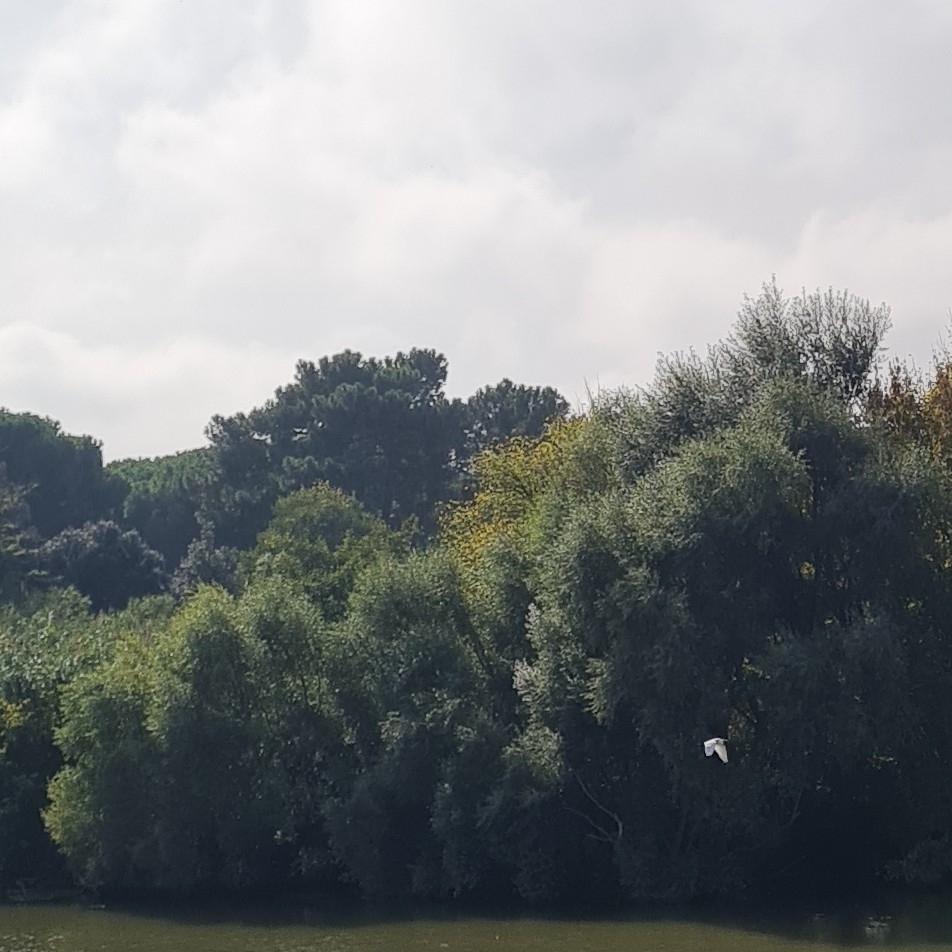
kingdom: Animalia
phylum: Chordata
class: Aves
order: Pelecaniformes
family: Ardeidae
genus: Ardea
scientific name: Ardea alba
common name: Great egret
